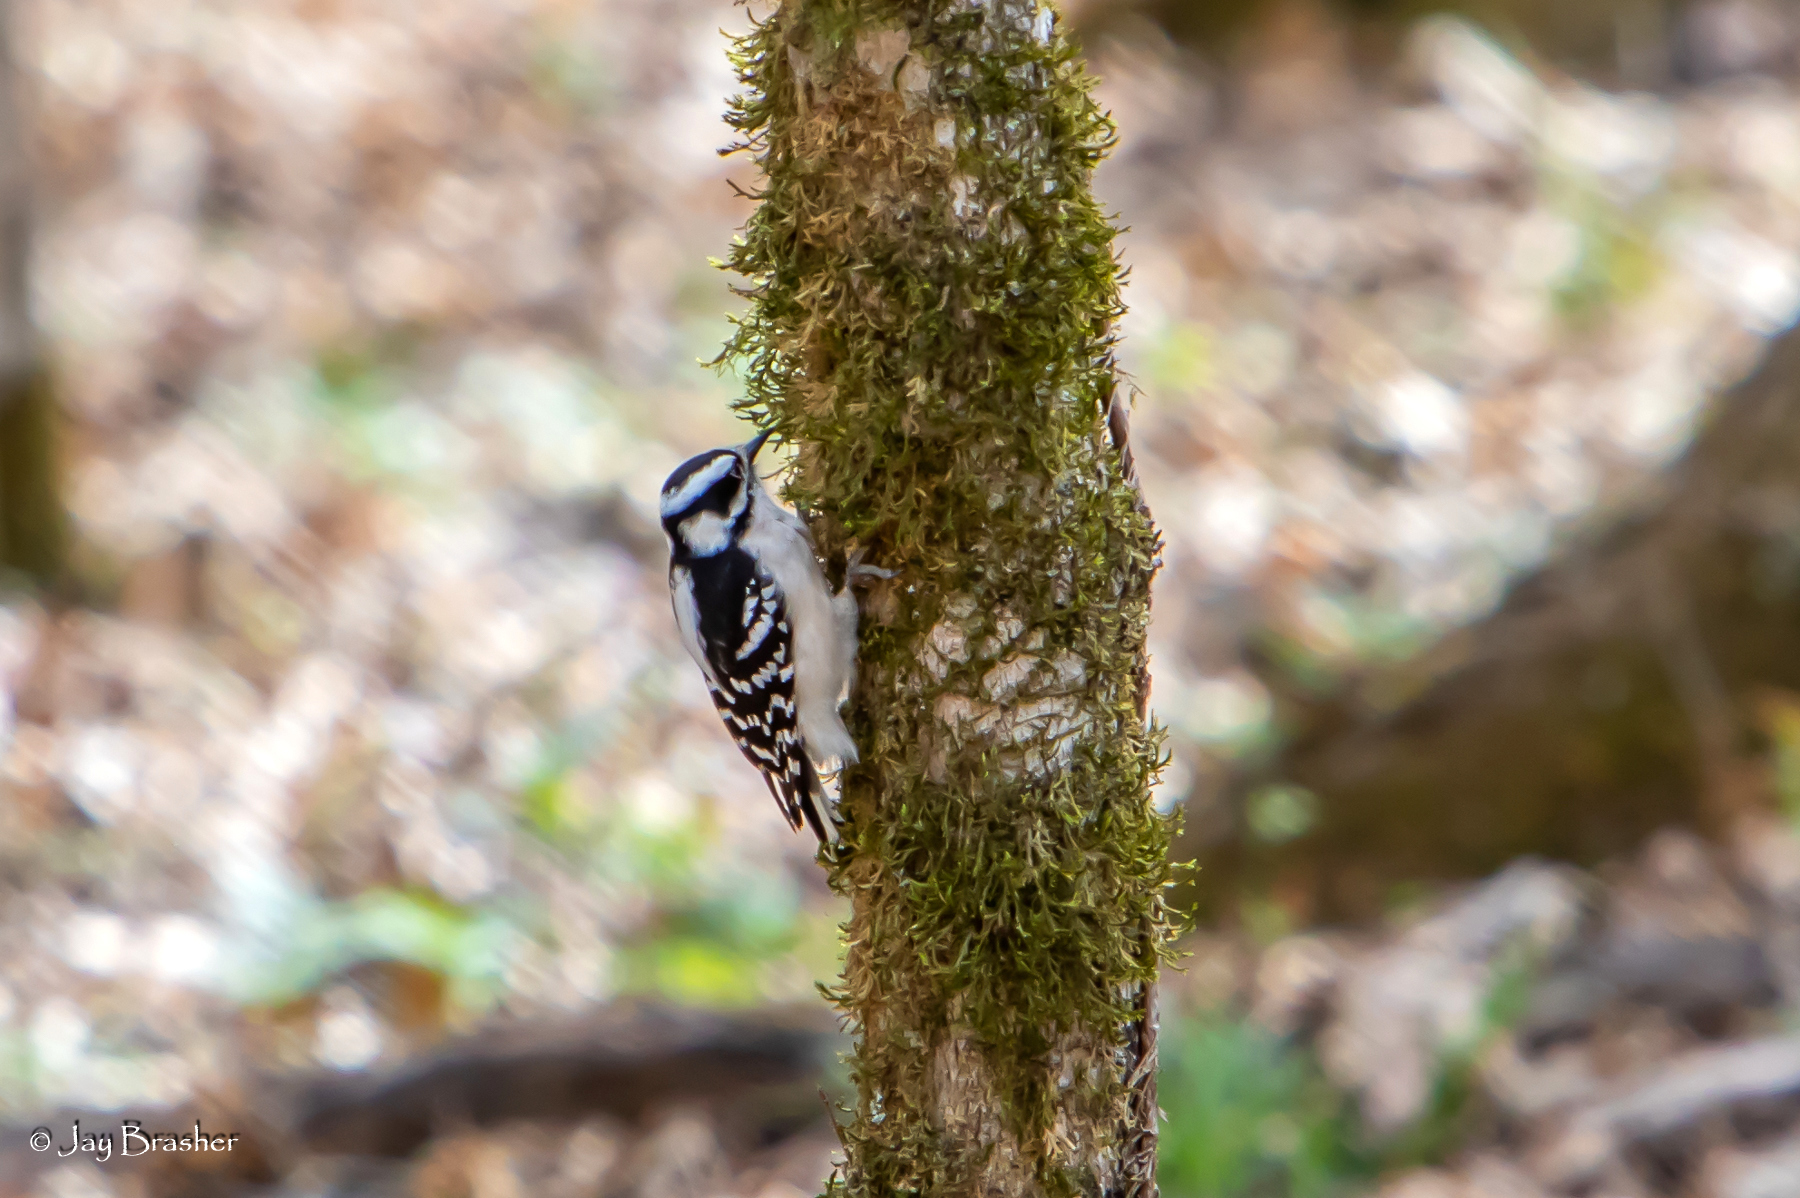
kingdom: Animalia
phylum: Chordata
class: Aves
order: Piciformes
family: Picidae
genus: Dryobates
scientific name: Dryobates pubescens
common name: Downy woodpecker
